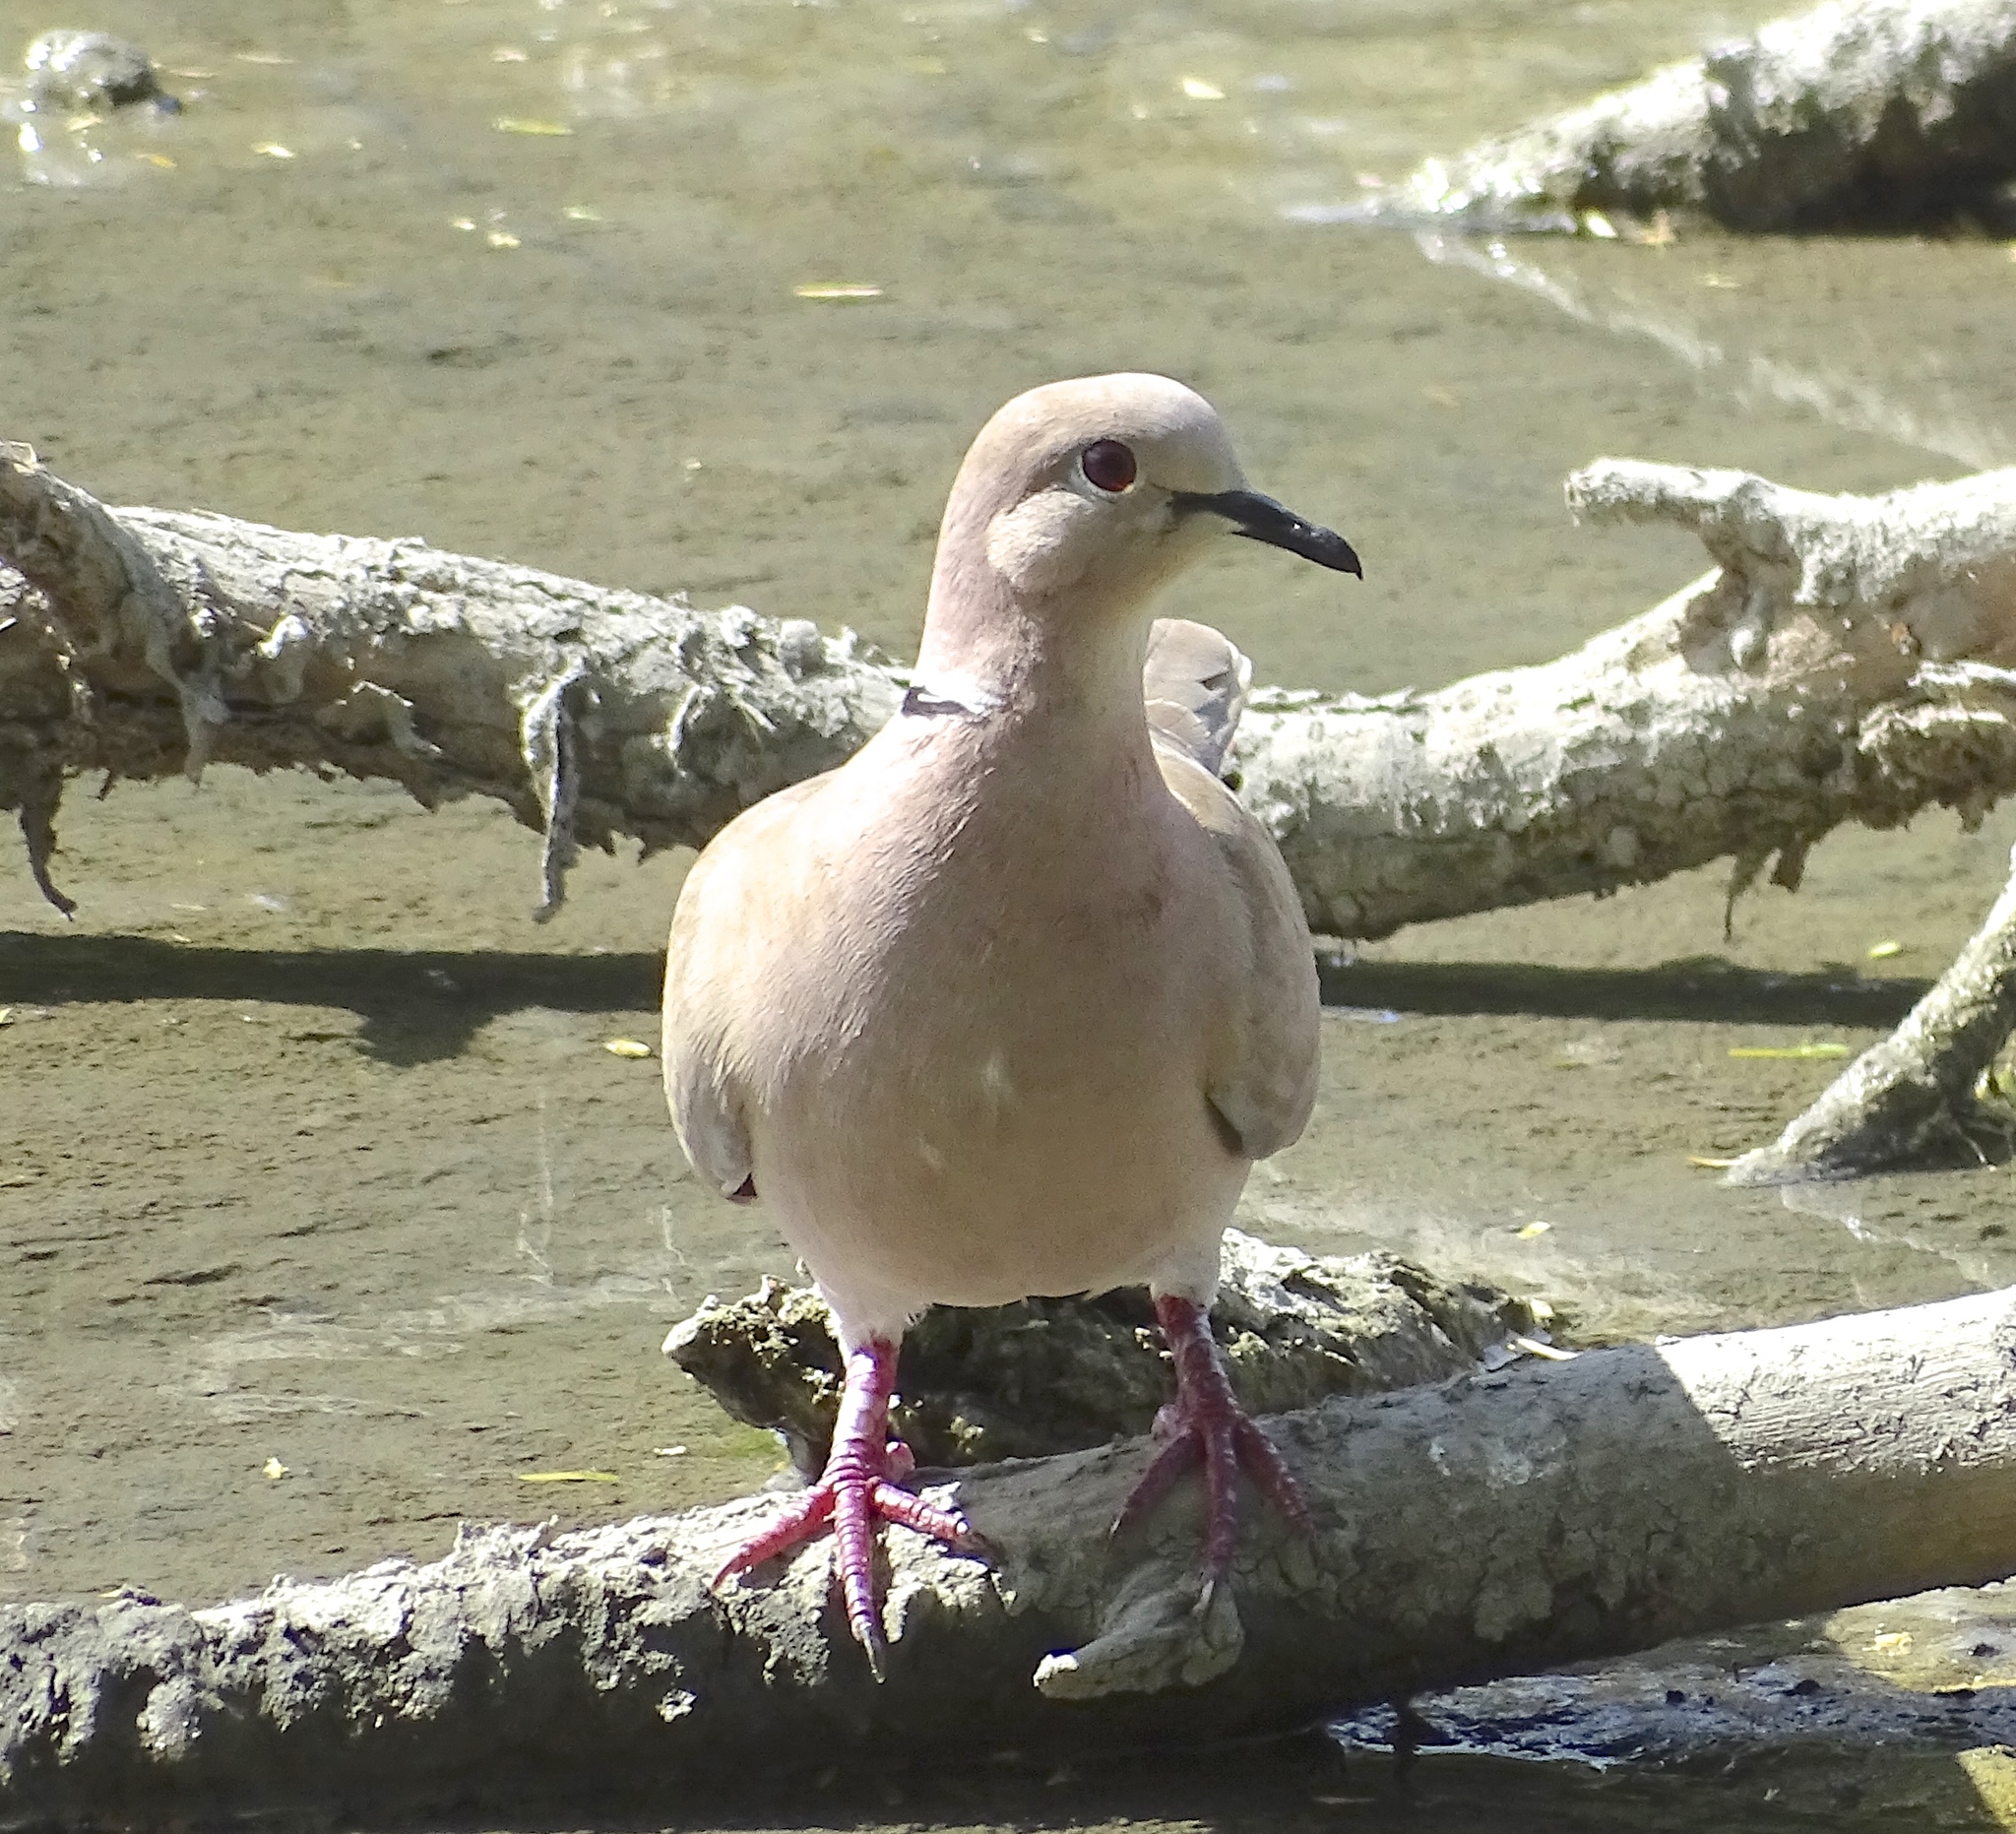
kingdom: Animalia
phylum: Chordata
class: Aves
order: Columbiformes
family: Columbidae
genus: Streptopelia
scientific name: Streptopelia decaocto
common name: Eurasian collared dove
